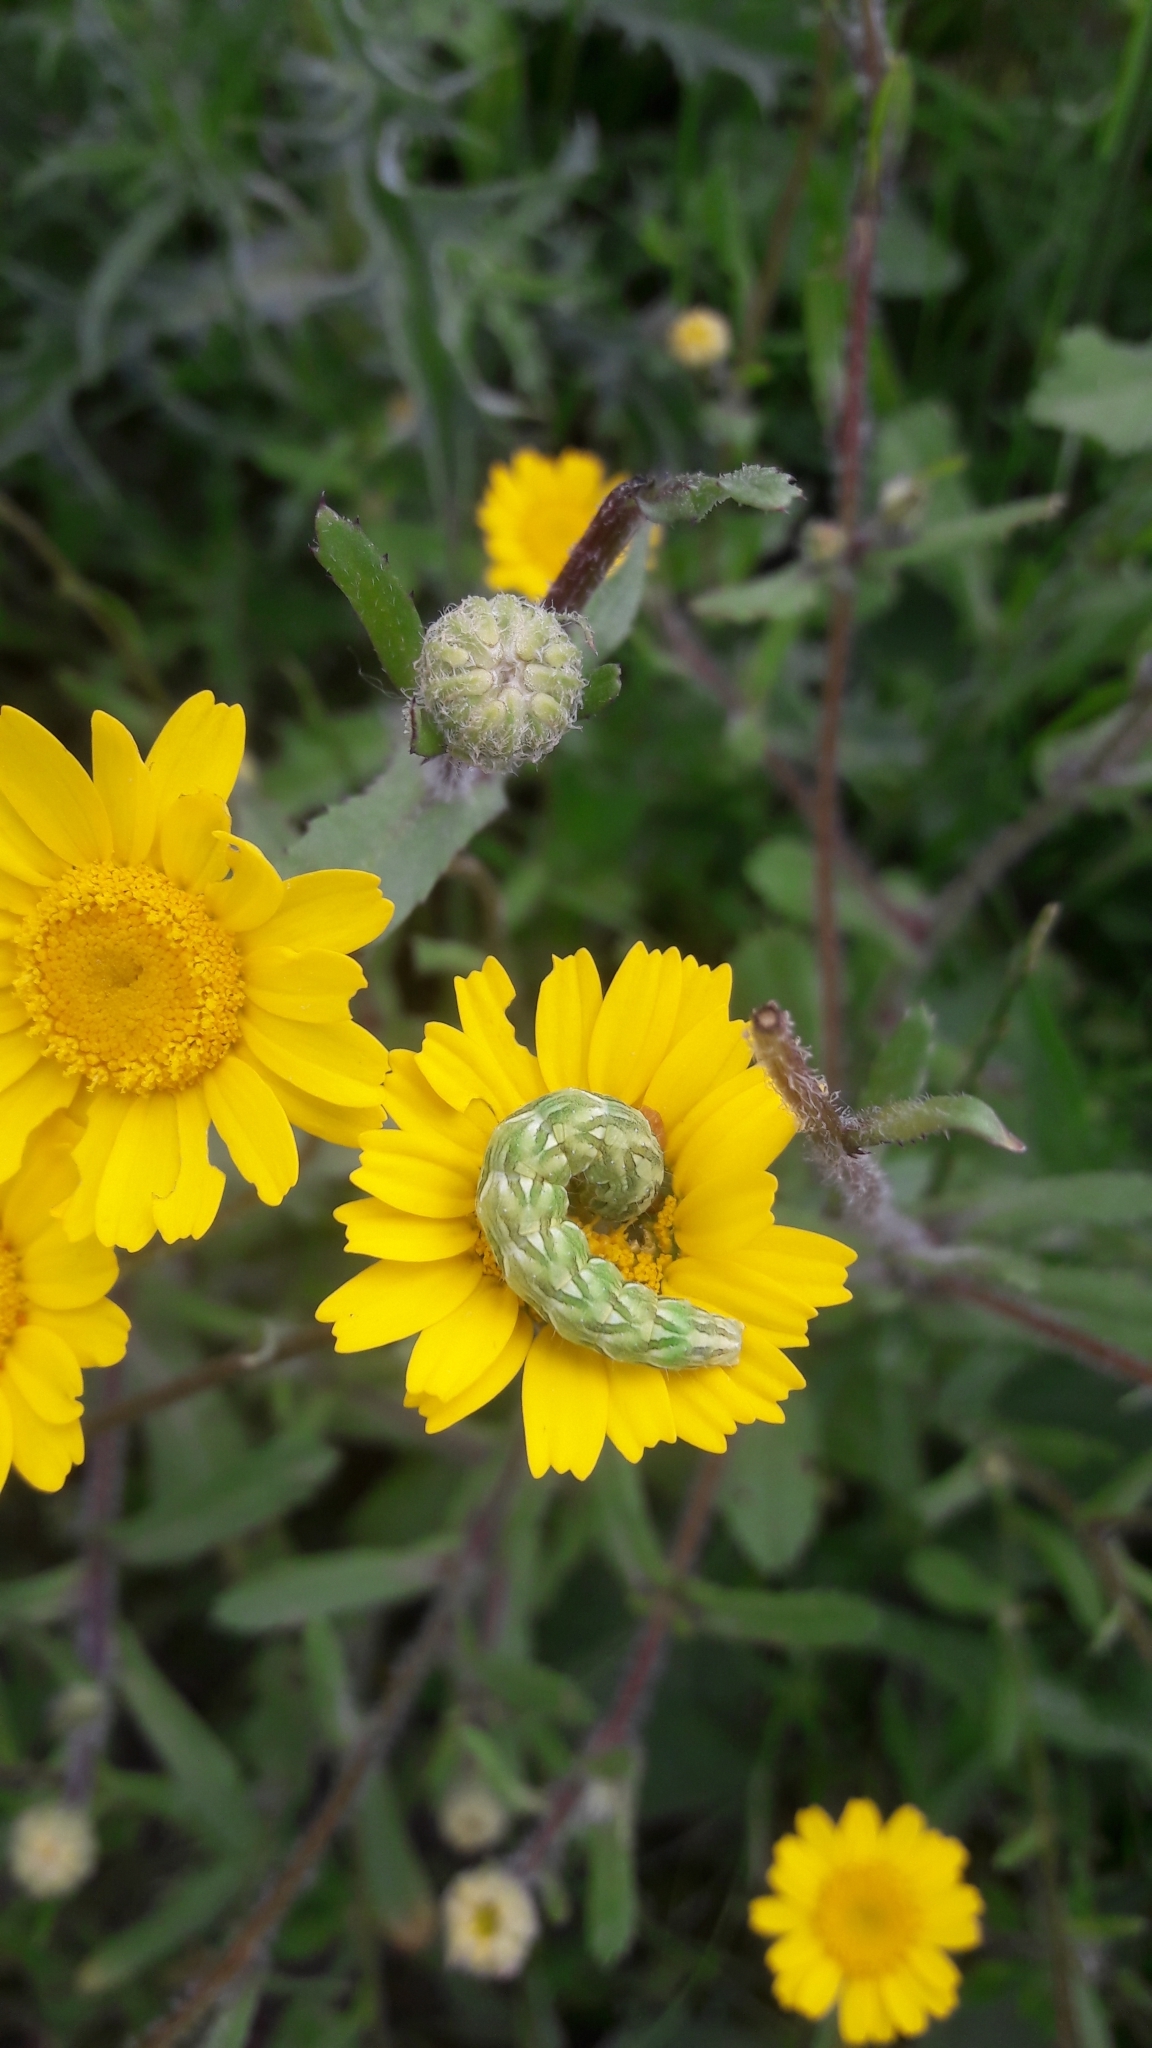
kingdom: Animalia
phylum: Arthropoda
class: Insecta
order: Lepidoptera
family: Noctuidae
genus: Cucullia
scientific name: Cucullia chamomillae
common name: Chamomile shark
